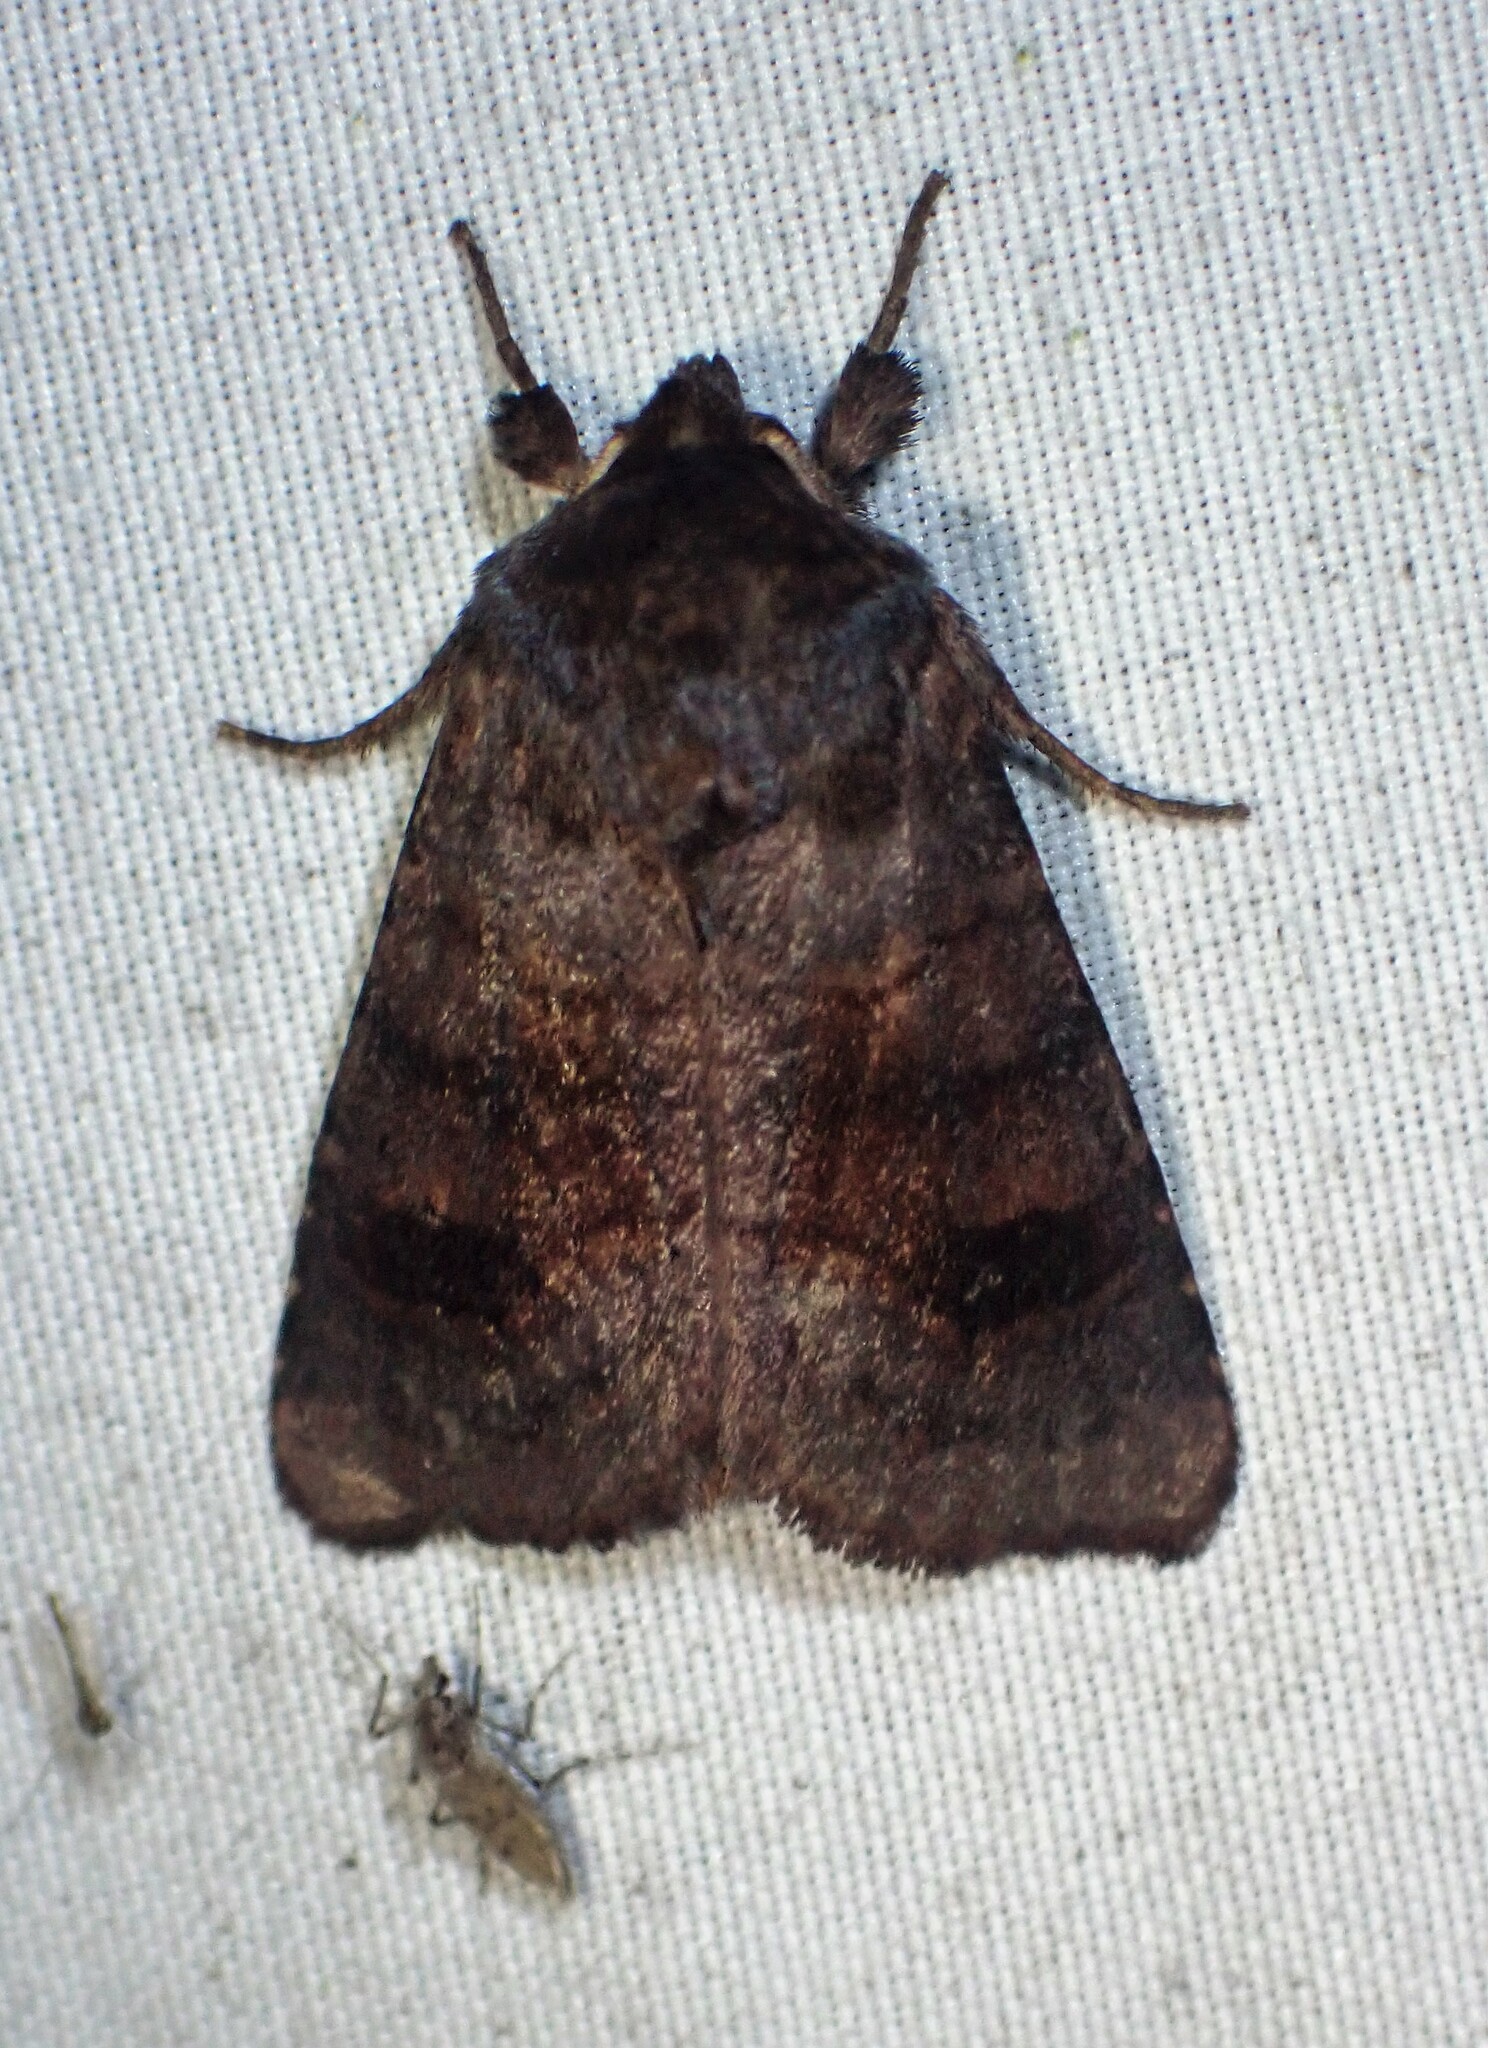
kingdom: Animalia
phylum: Arthropoda
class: Insecta
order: Lepidoptera
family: Noctuidae
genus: Nephelodes
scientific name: Nephelodes minians
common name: Bronzed cutworm
